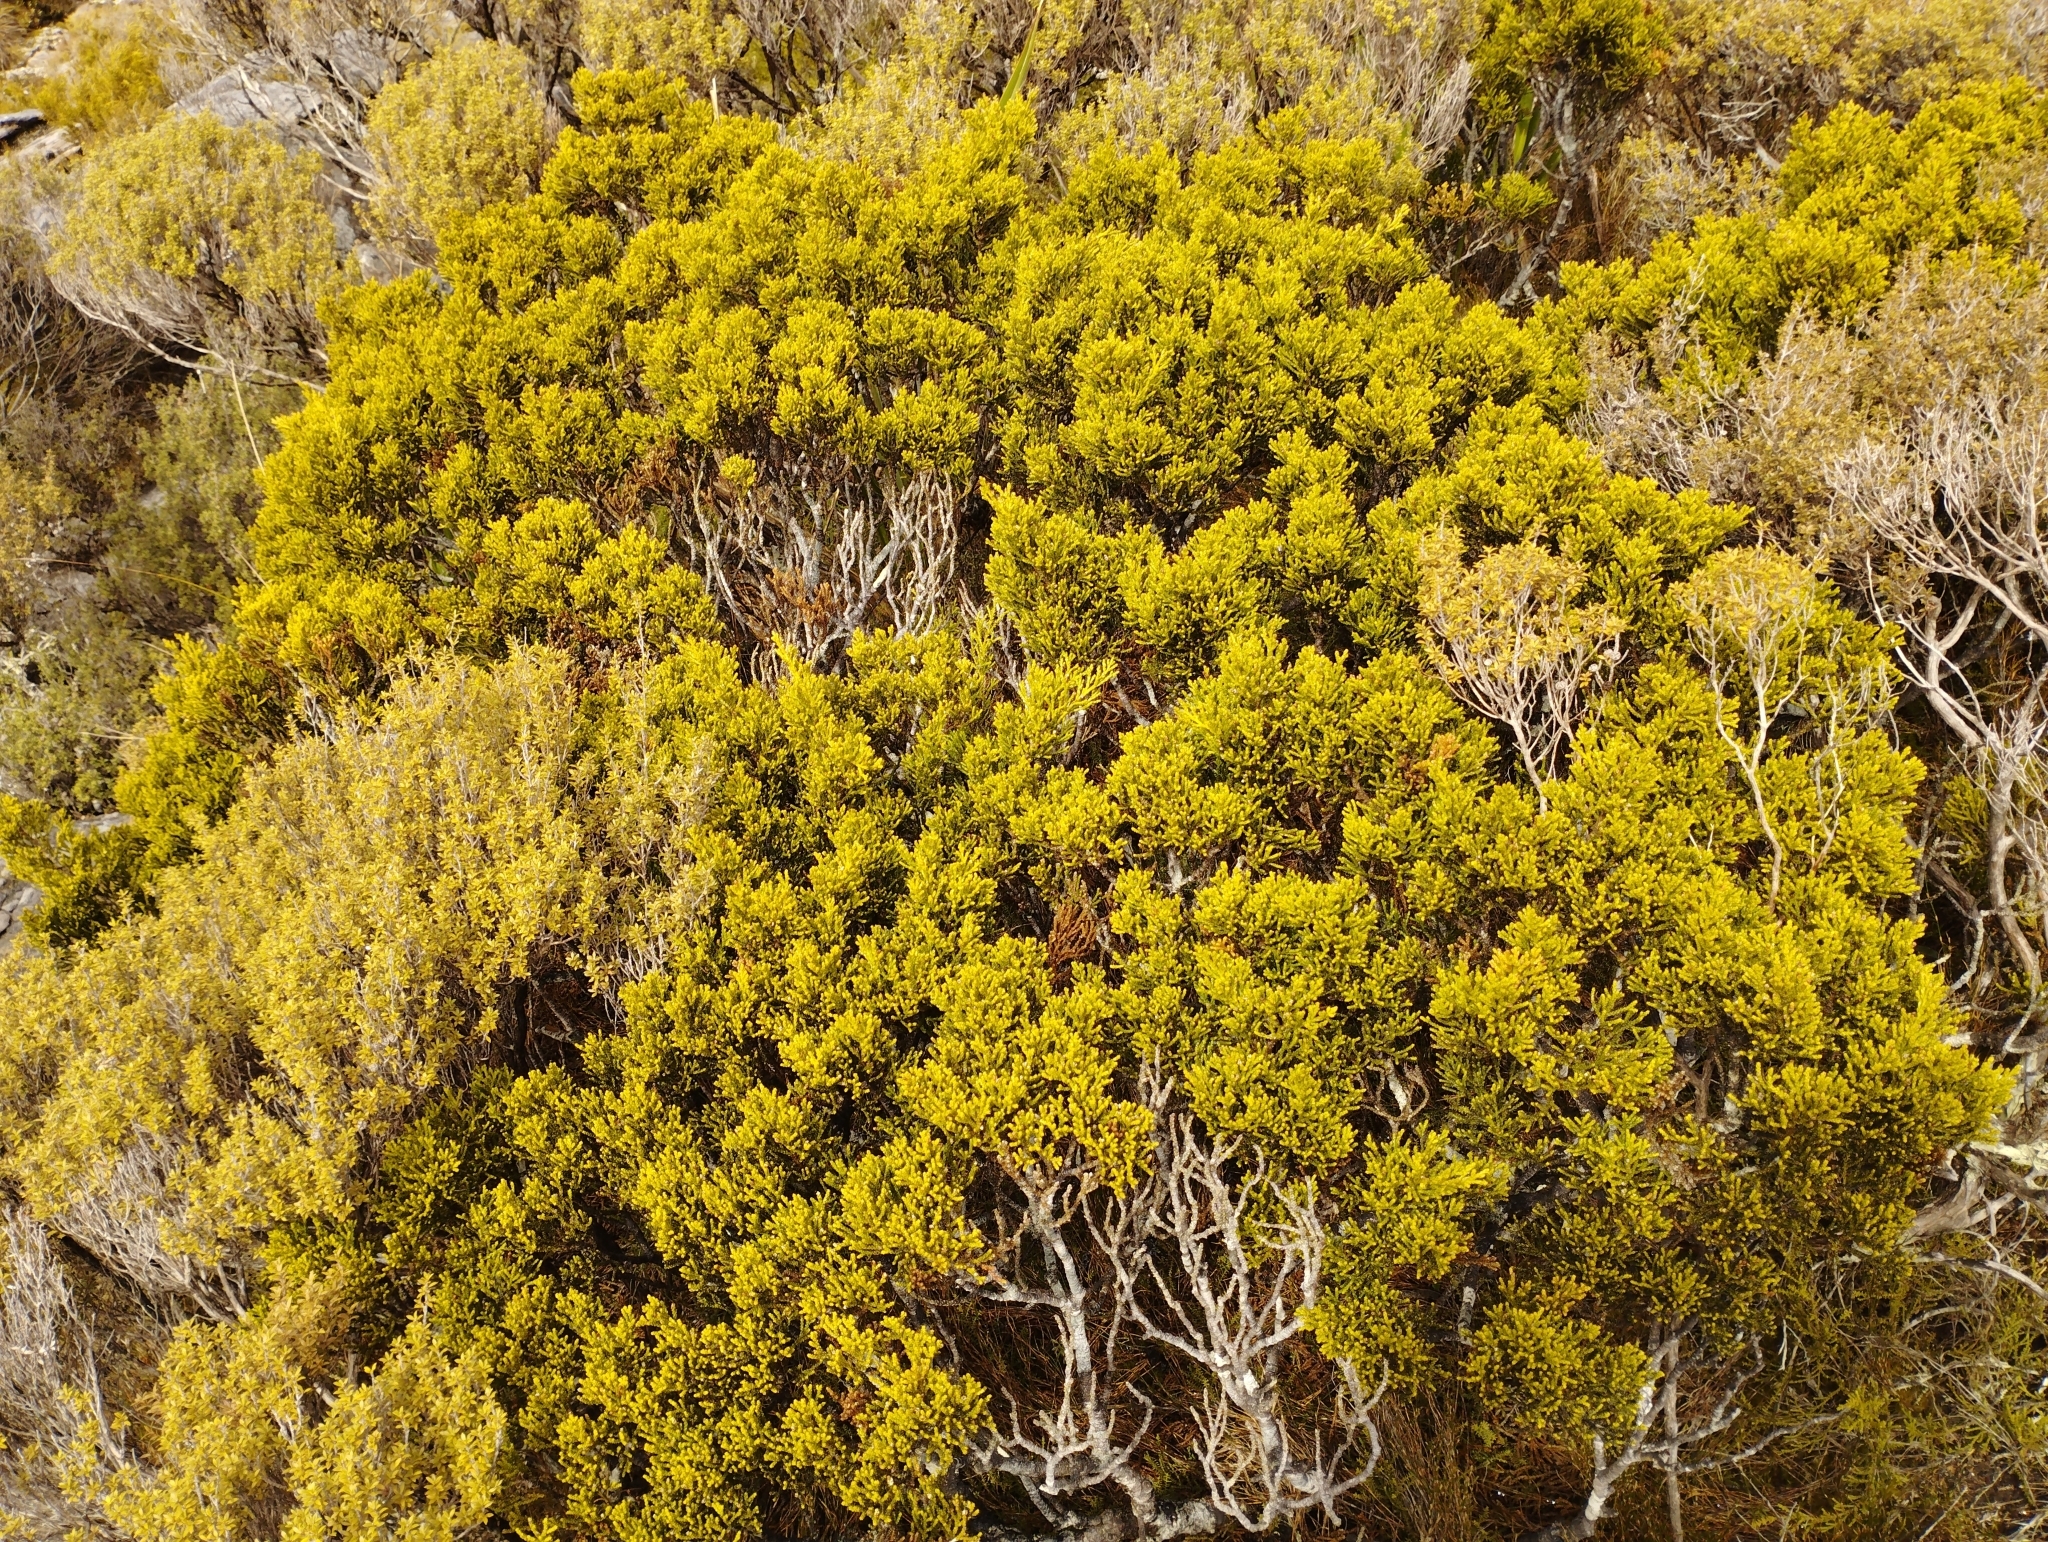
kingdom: Plantae
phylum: Tracheophyta
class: Pinopsida
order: Pinales
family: Podocarpaceae
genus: Halocarpus
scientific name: Halocarpus biformis
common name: Alpine tarwood
